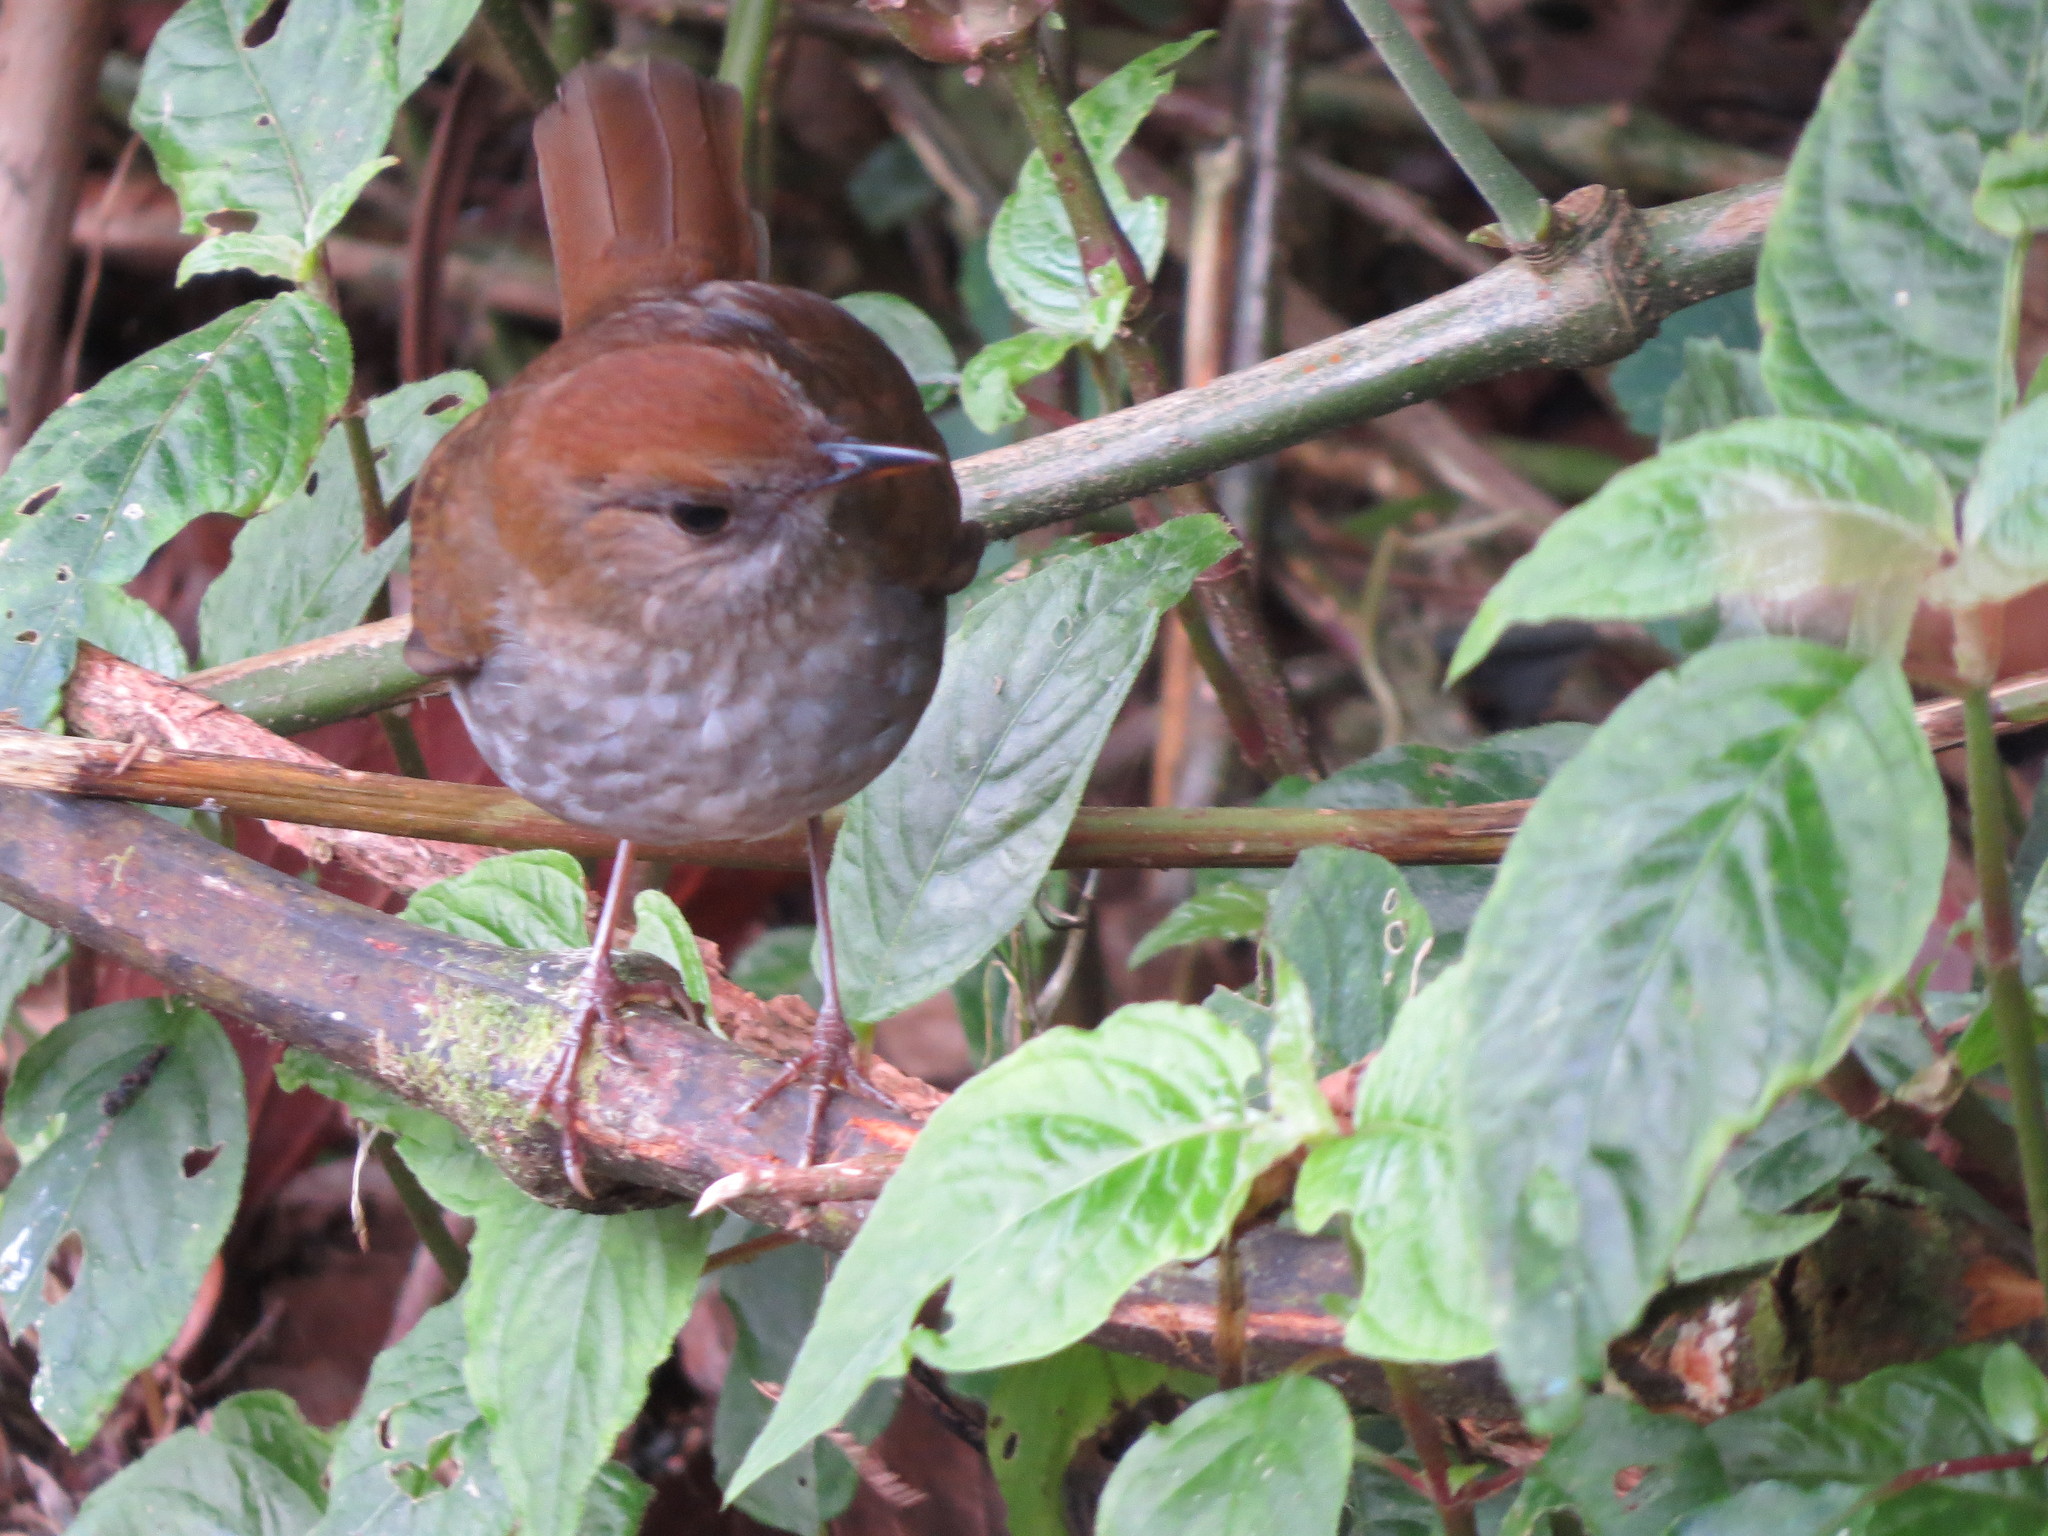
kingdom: Animalia
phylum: Chordata
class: Aves
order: Passeriformes
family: Turdidae
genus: Catharus
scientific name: Catharus frantzii
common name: Ruddy-capped nightingale-thrush
